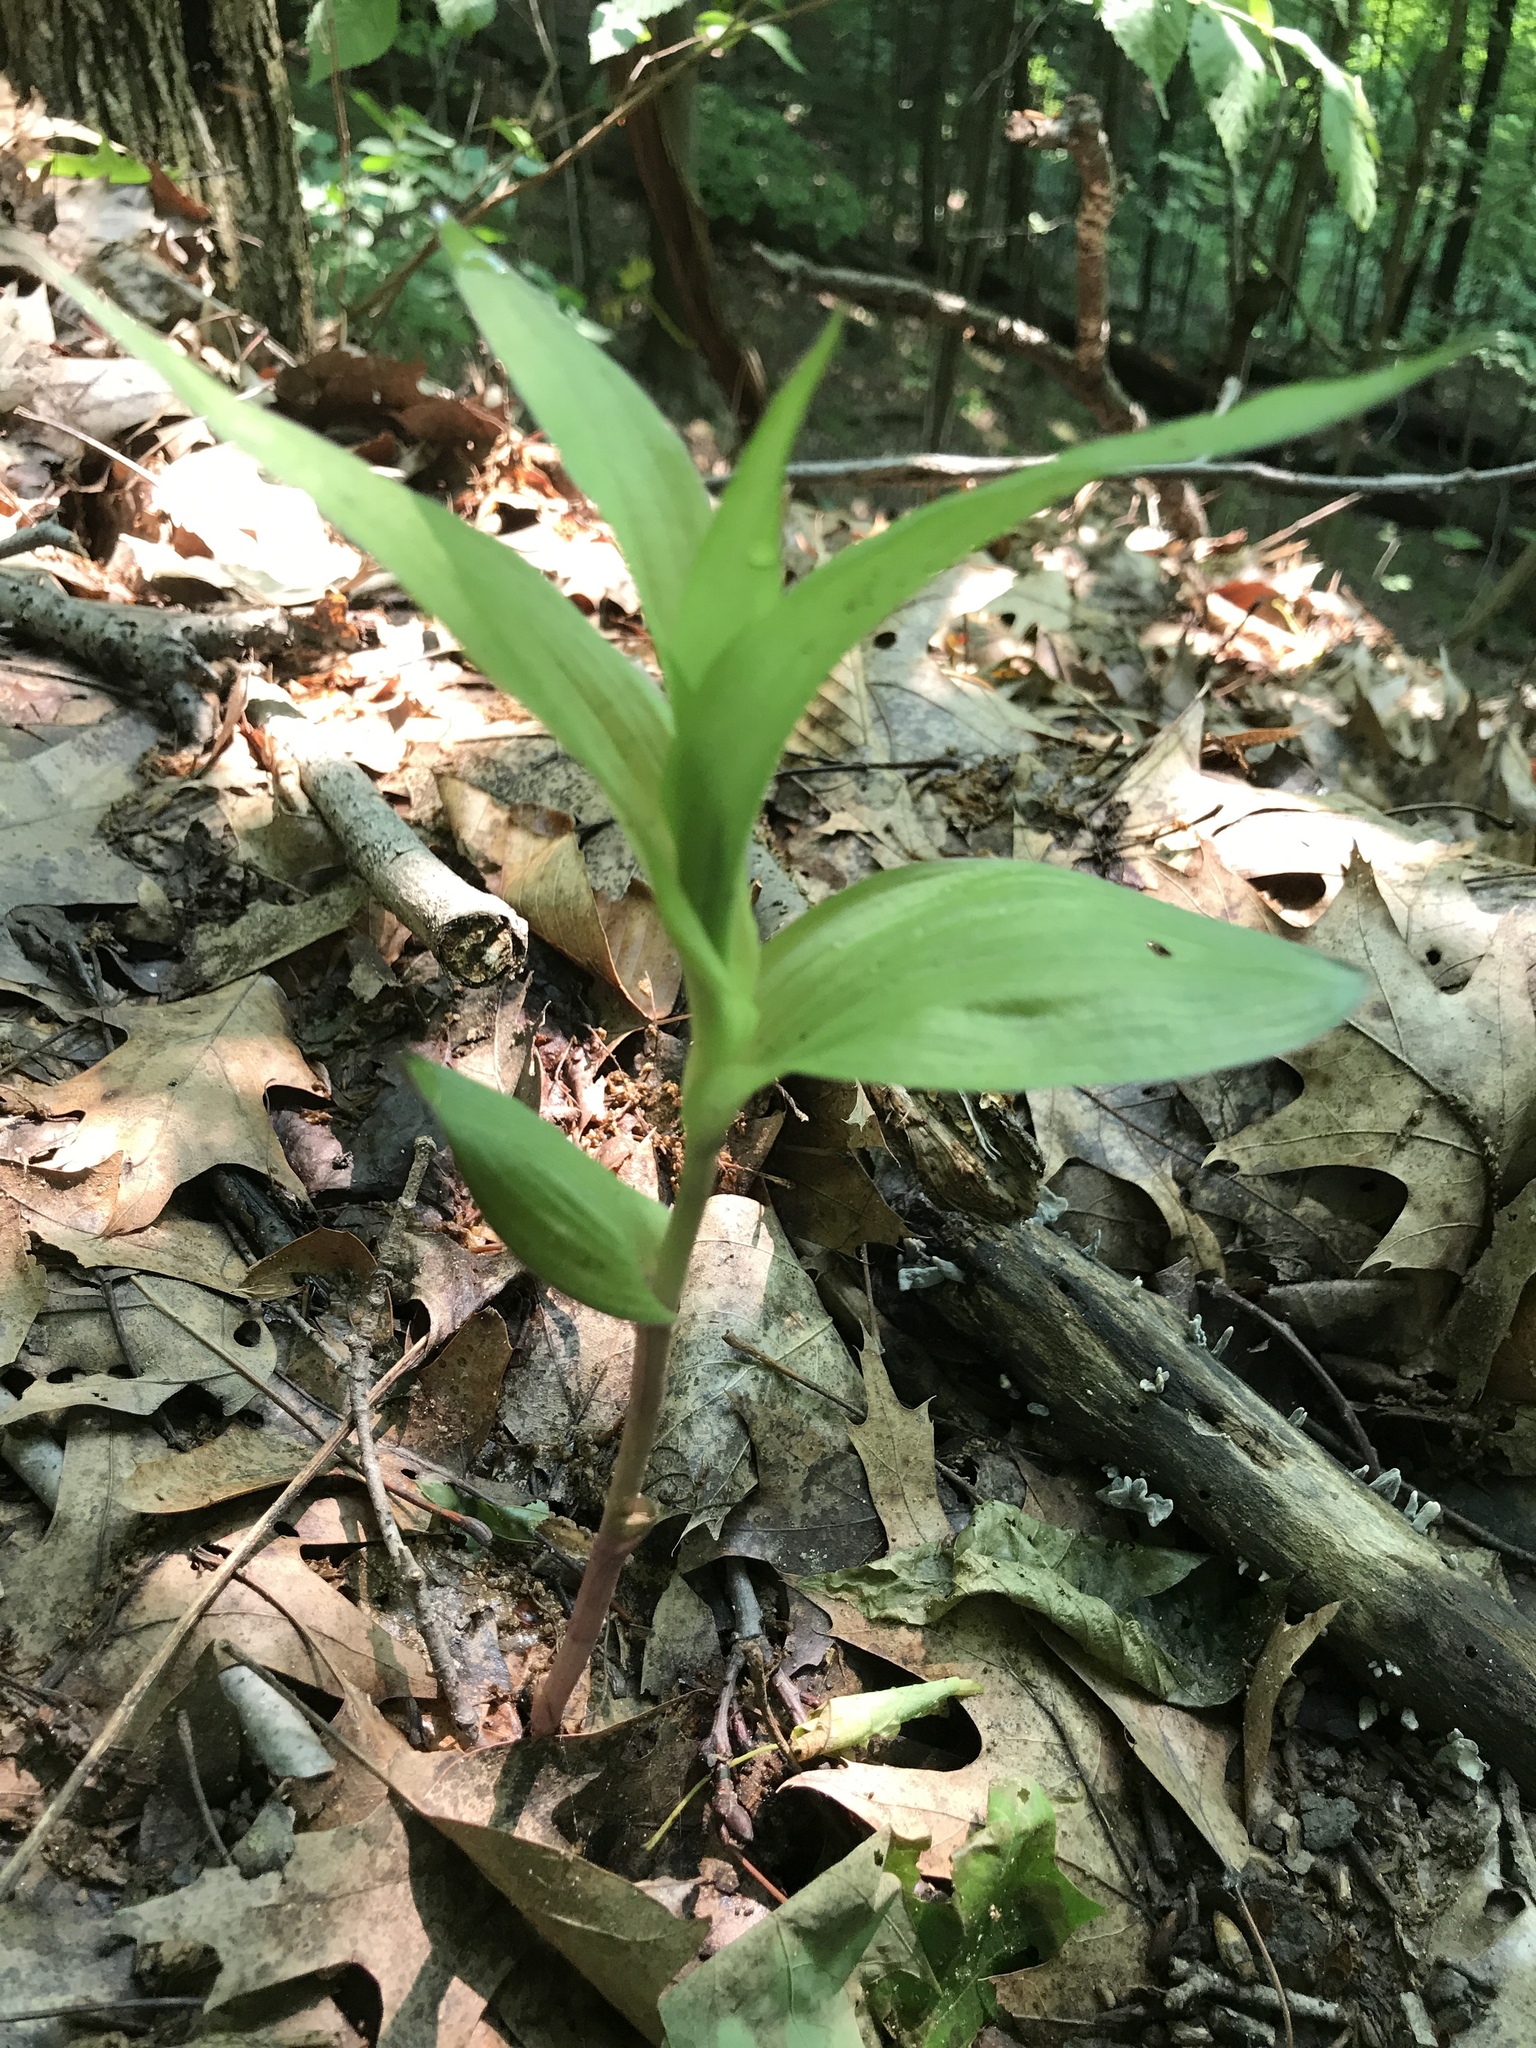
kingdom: Plantae
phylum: Tracheophyta
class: Liliopsida
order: Asparagales
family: Orchidaceae
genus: Epipactis
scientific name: Epipactis helleborine
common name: Broad-leaved helleborine
